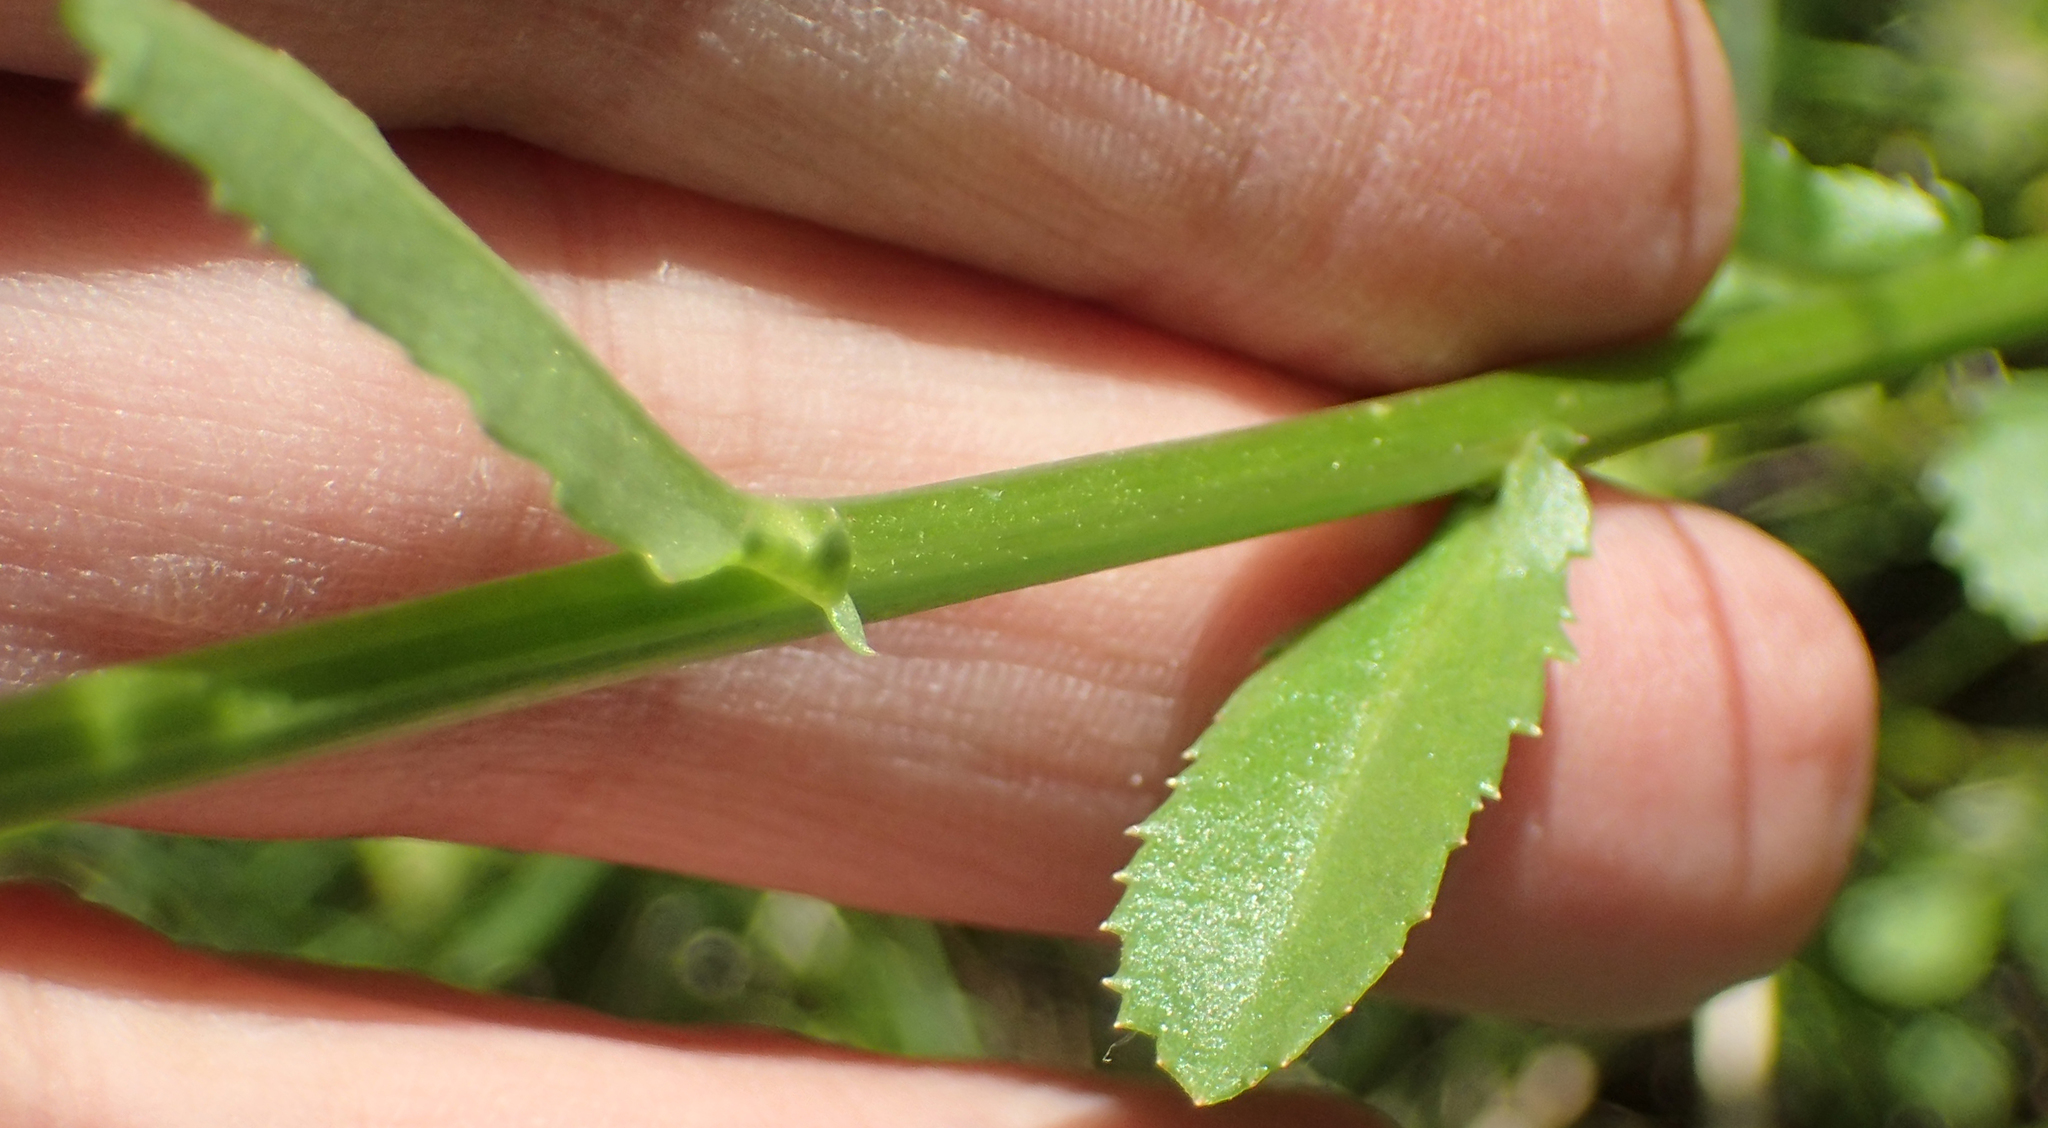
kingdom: Plantae
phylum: Tracheophyta
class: Magnoliopsida
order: Asterales
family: Asteraceae
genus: Leucanthemum
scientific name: Leucanthemum vulgare
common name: Oxeye daisy
